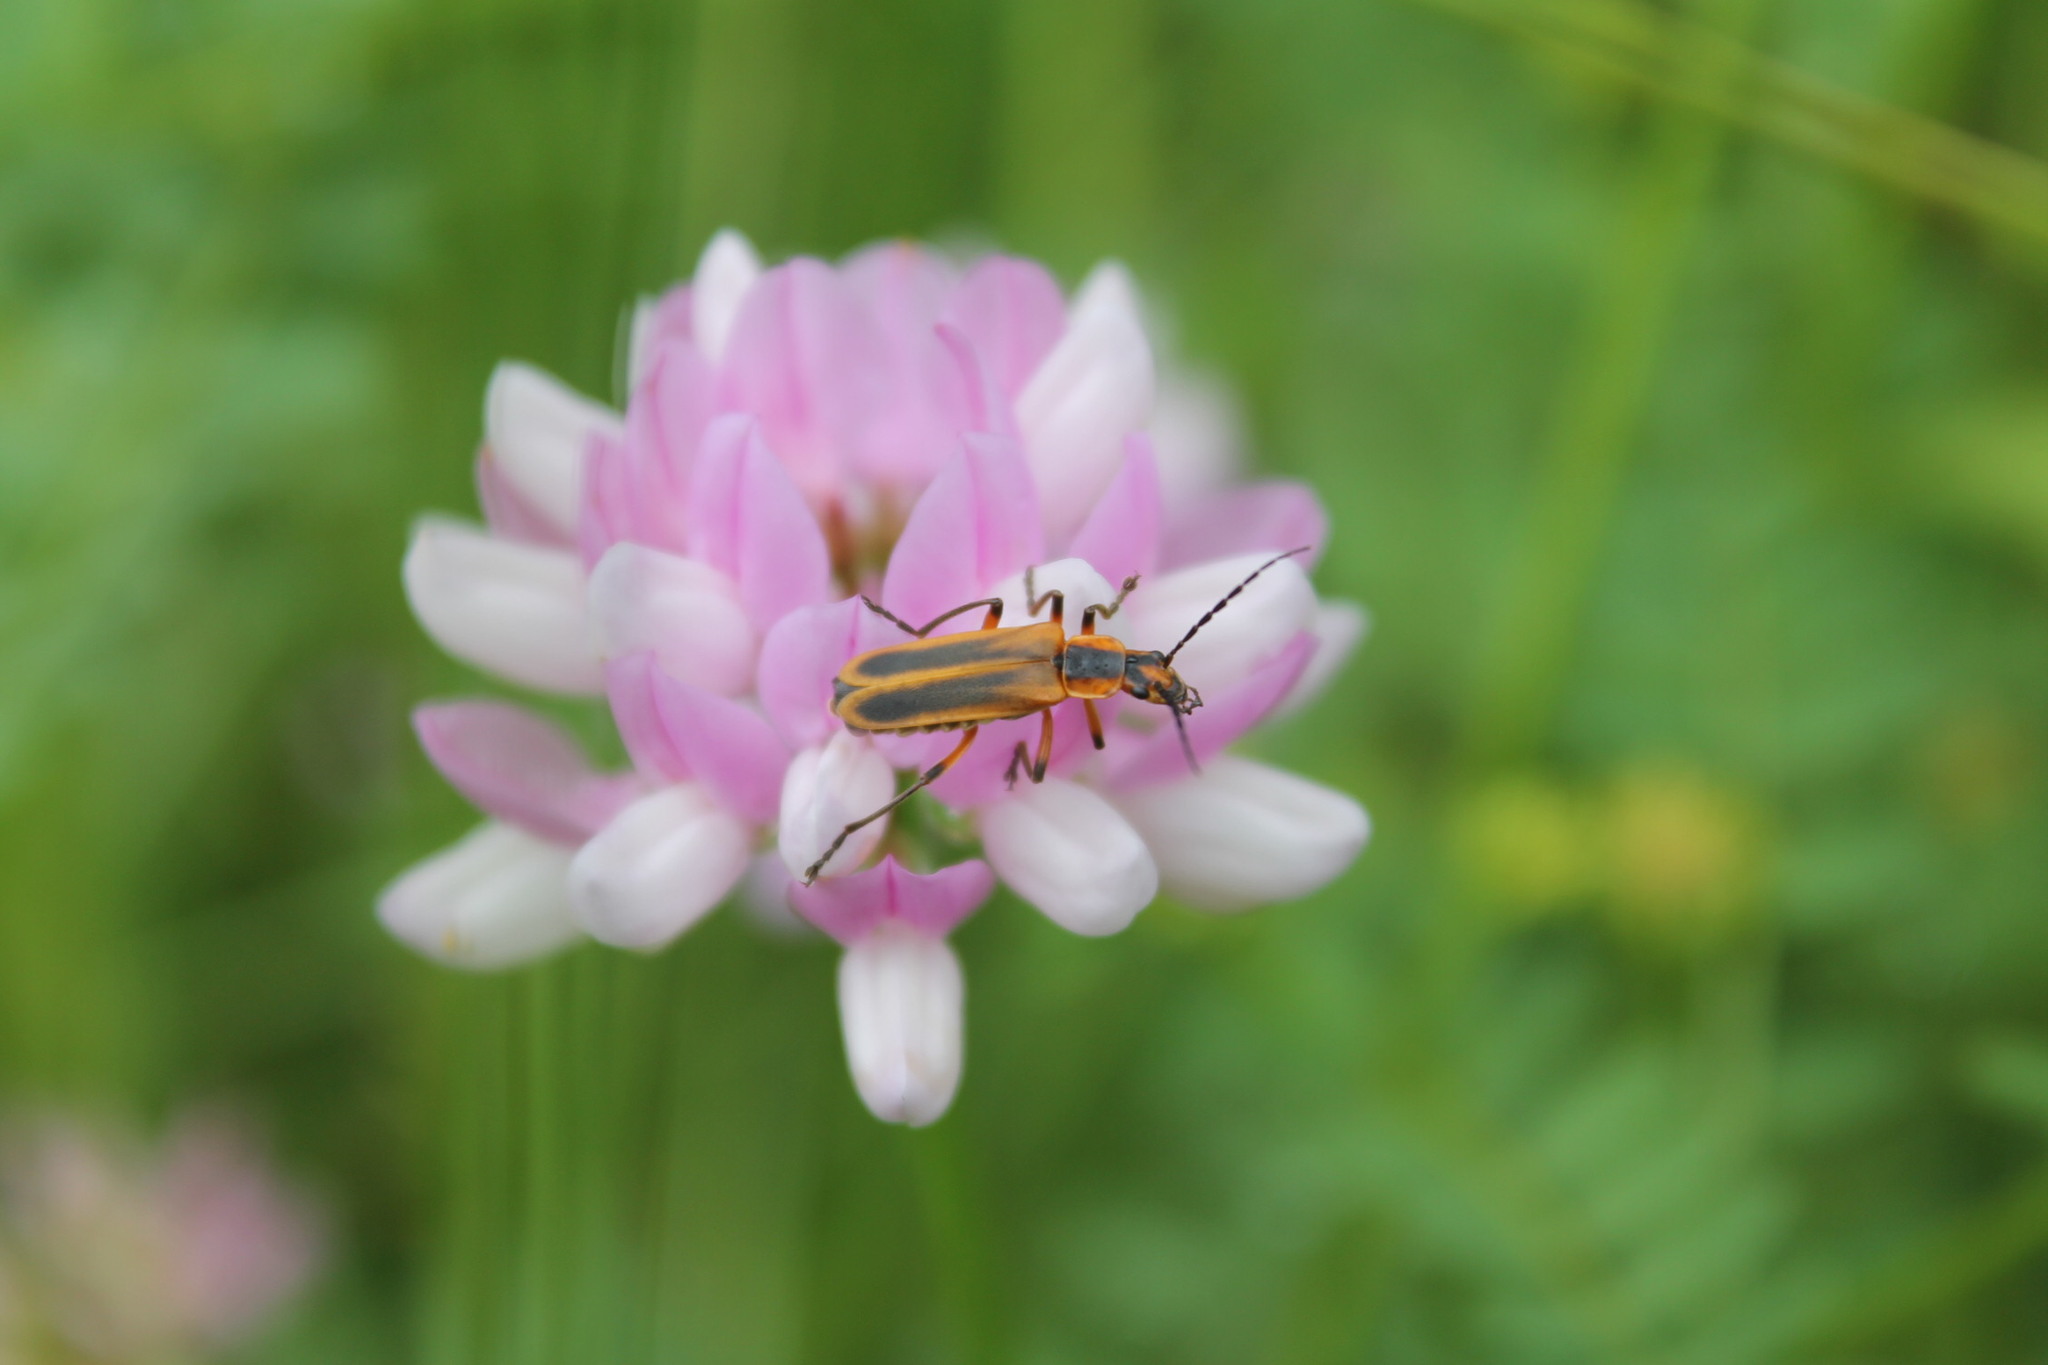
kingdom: Animalia
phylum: Arthropoda
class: Insecta
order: Coleoptera
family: Cantharidae
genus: Chauliognathus
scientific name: Chauliognathus marginatus
